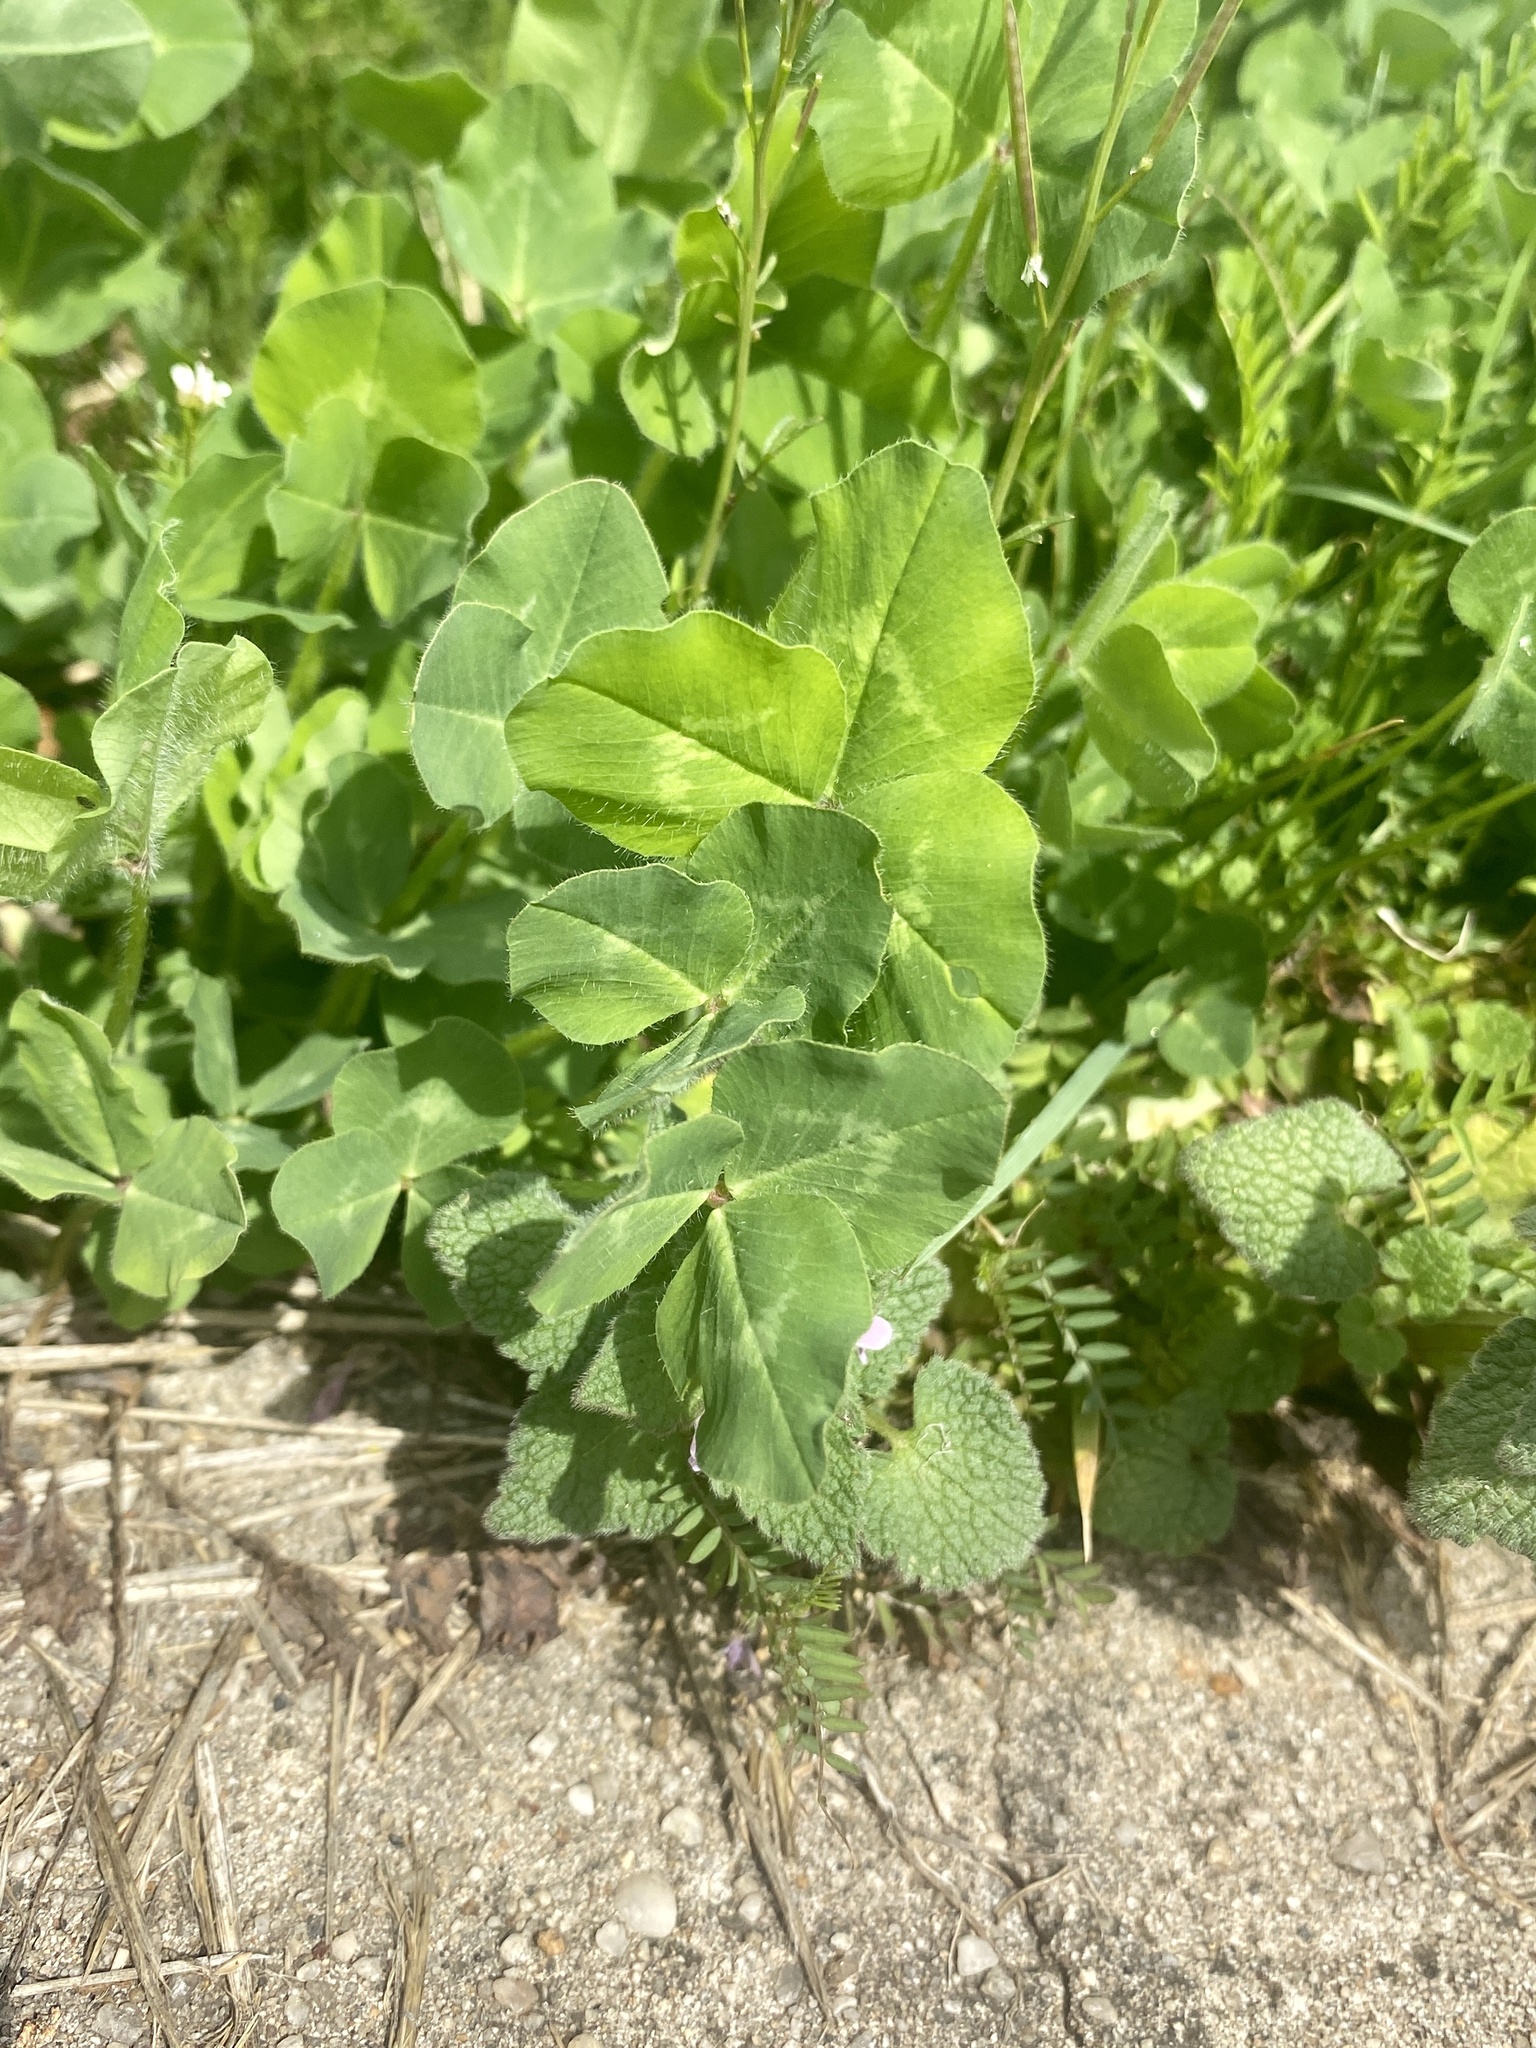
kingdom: Plantae
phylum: Tracheophyta
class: Magnoliopsida
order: Fabales
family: Fabaceae
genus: Trifolium
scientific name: Trifolium pratense
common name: Red clover
